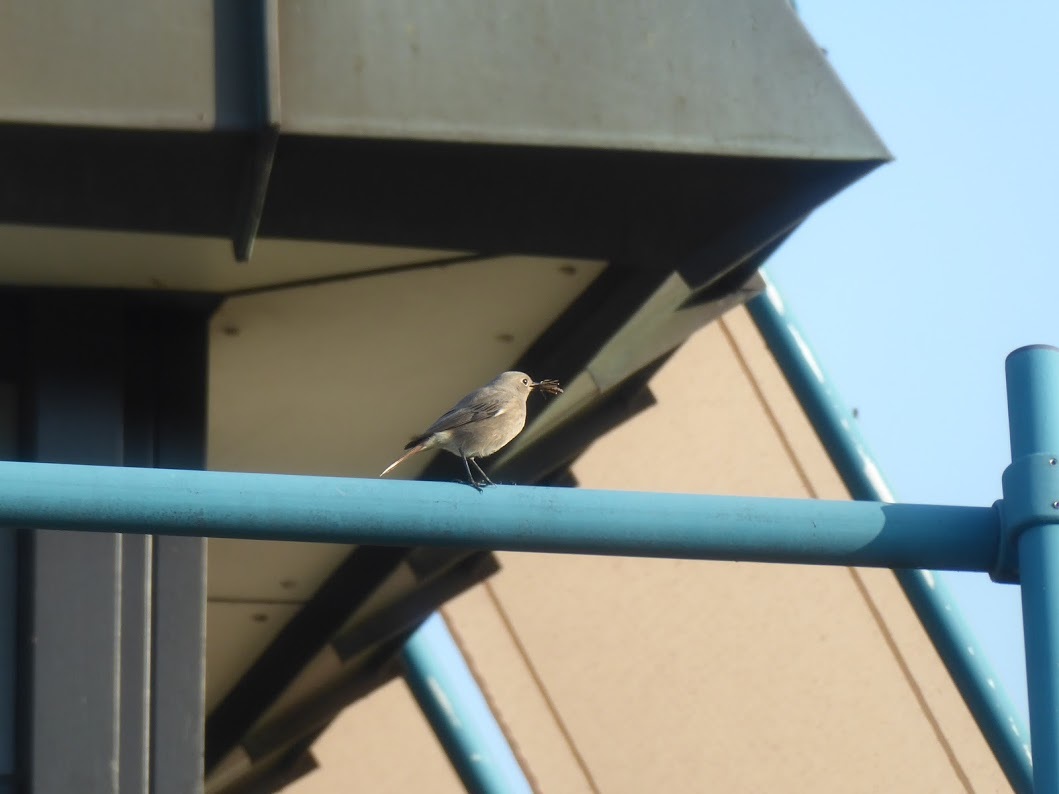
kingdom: Animalia
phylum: Chordata
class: Aves
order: Passeriformes
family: Muscicapidae
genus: Phoenicurus
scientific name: Phoenicurus ochruros
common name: Black redstart
